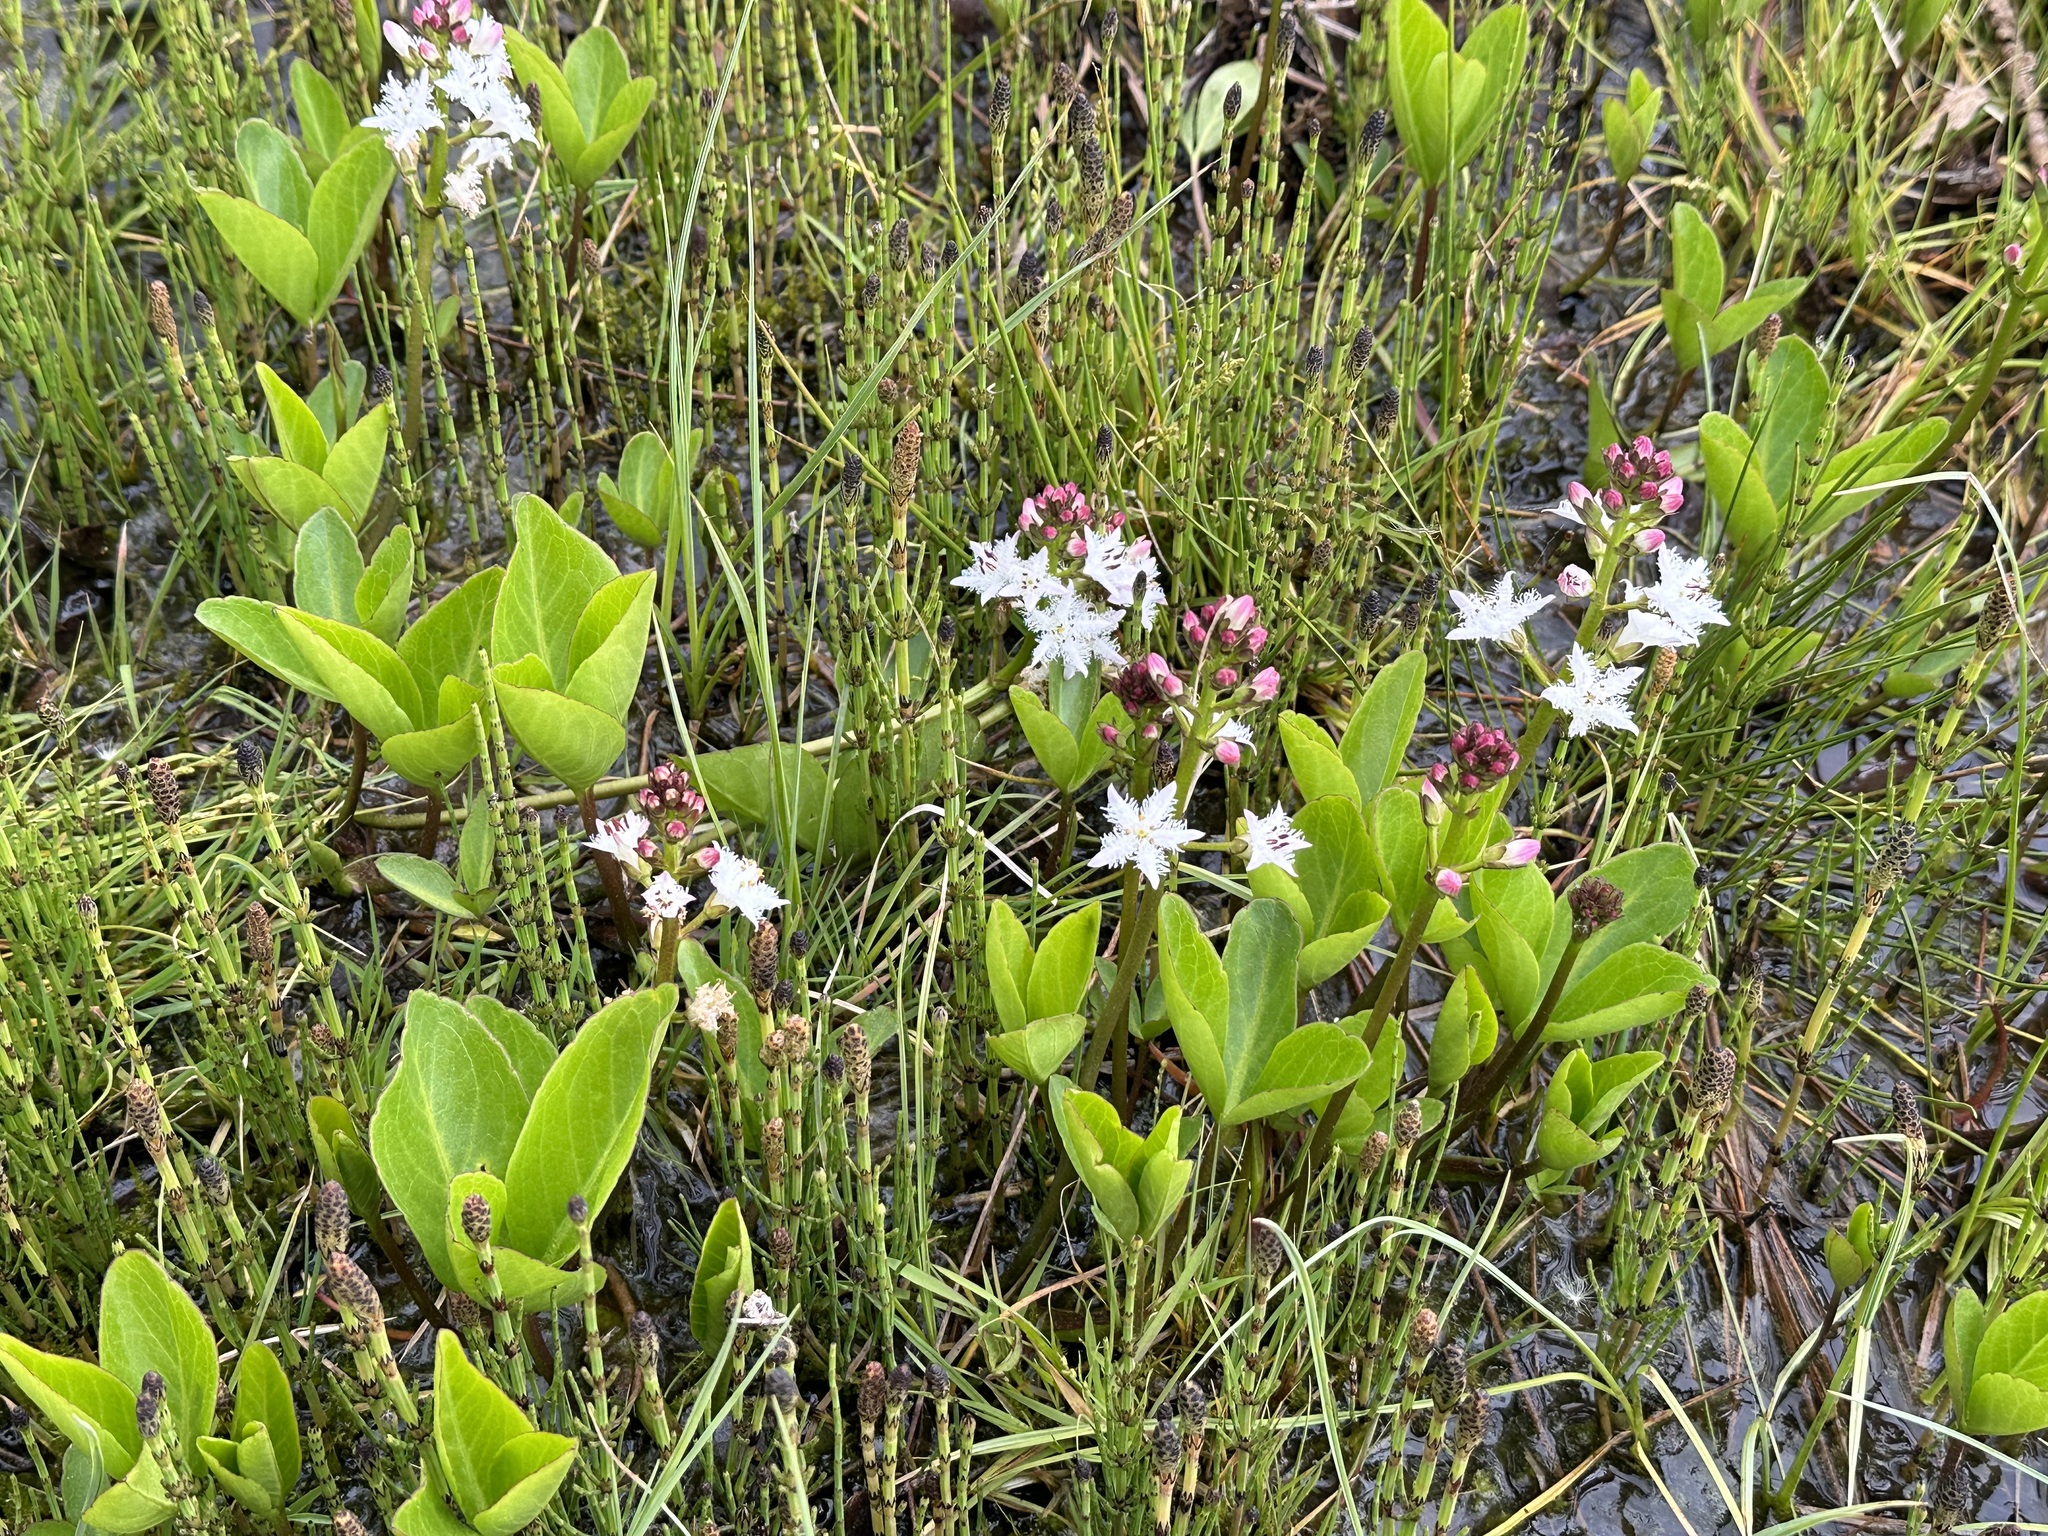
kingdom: Plantae
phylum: Tracheophyta
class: Polypodiopsida
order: Equisetales
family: Equisetaceae
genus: Equisetum
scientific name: Equisetum palustre
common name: Marsh horsetail
